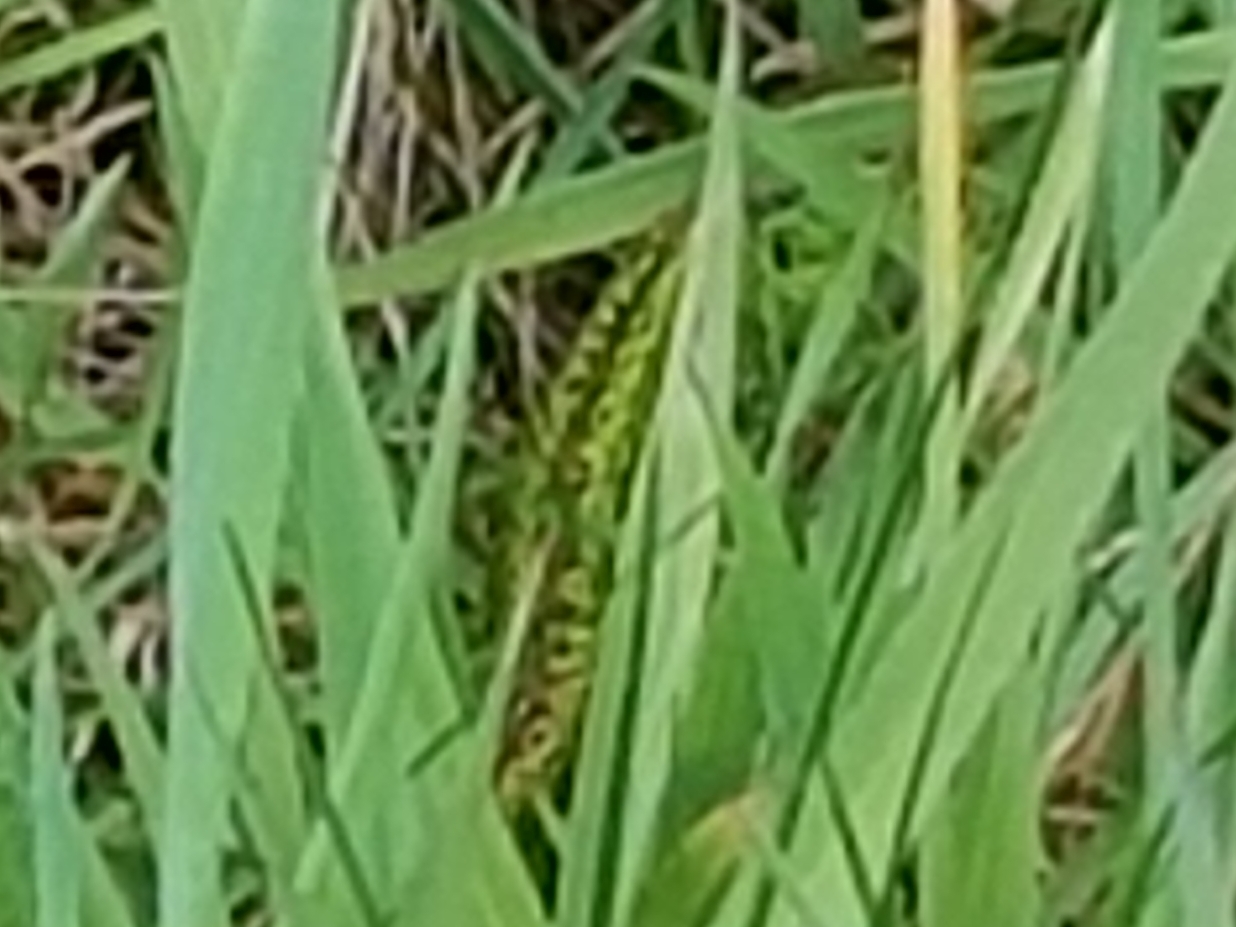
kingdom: Animalia
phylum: Chordata
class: Squamata
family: Lacertidae
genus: Lacerta
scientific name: Lacerta agilis
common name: Sand lizard
